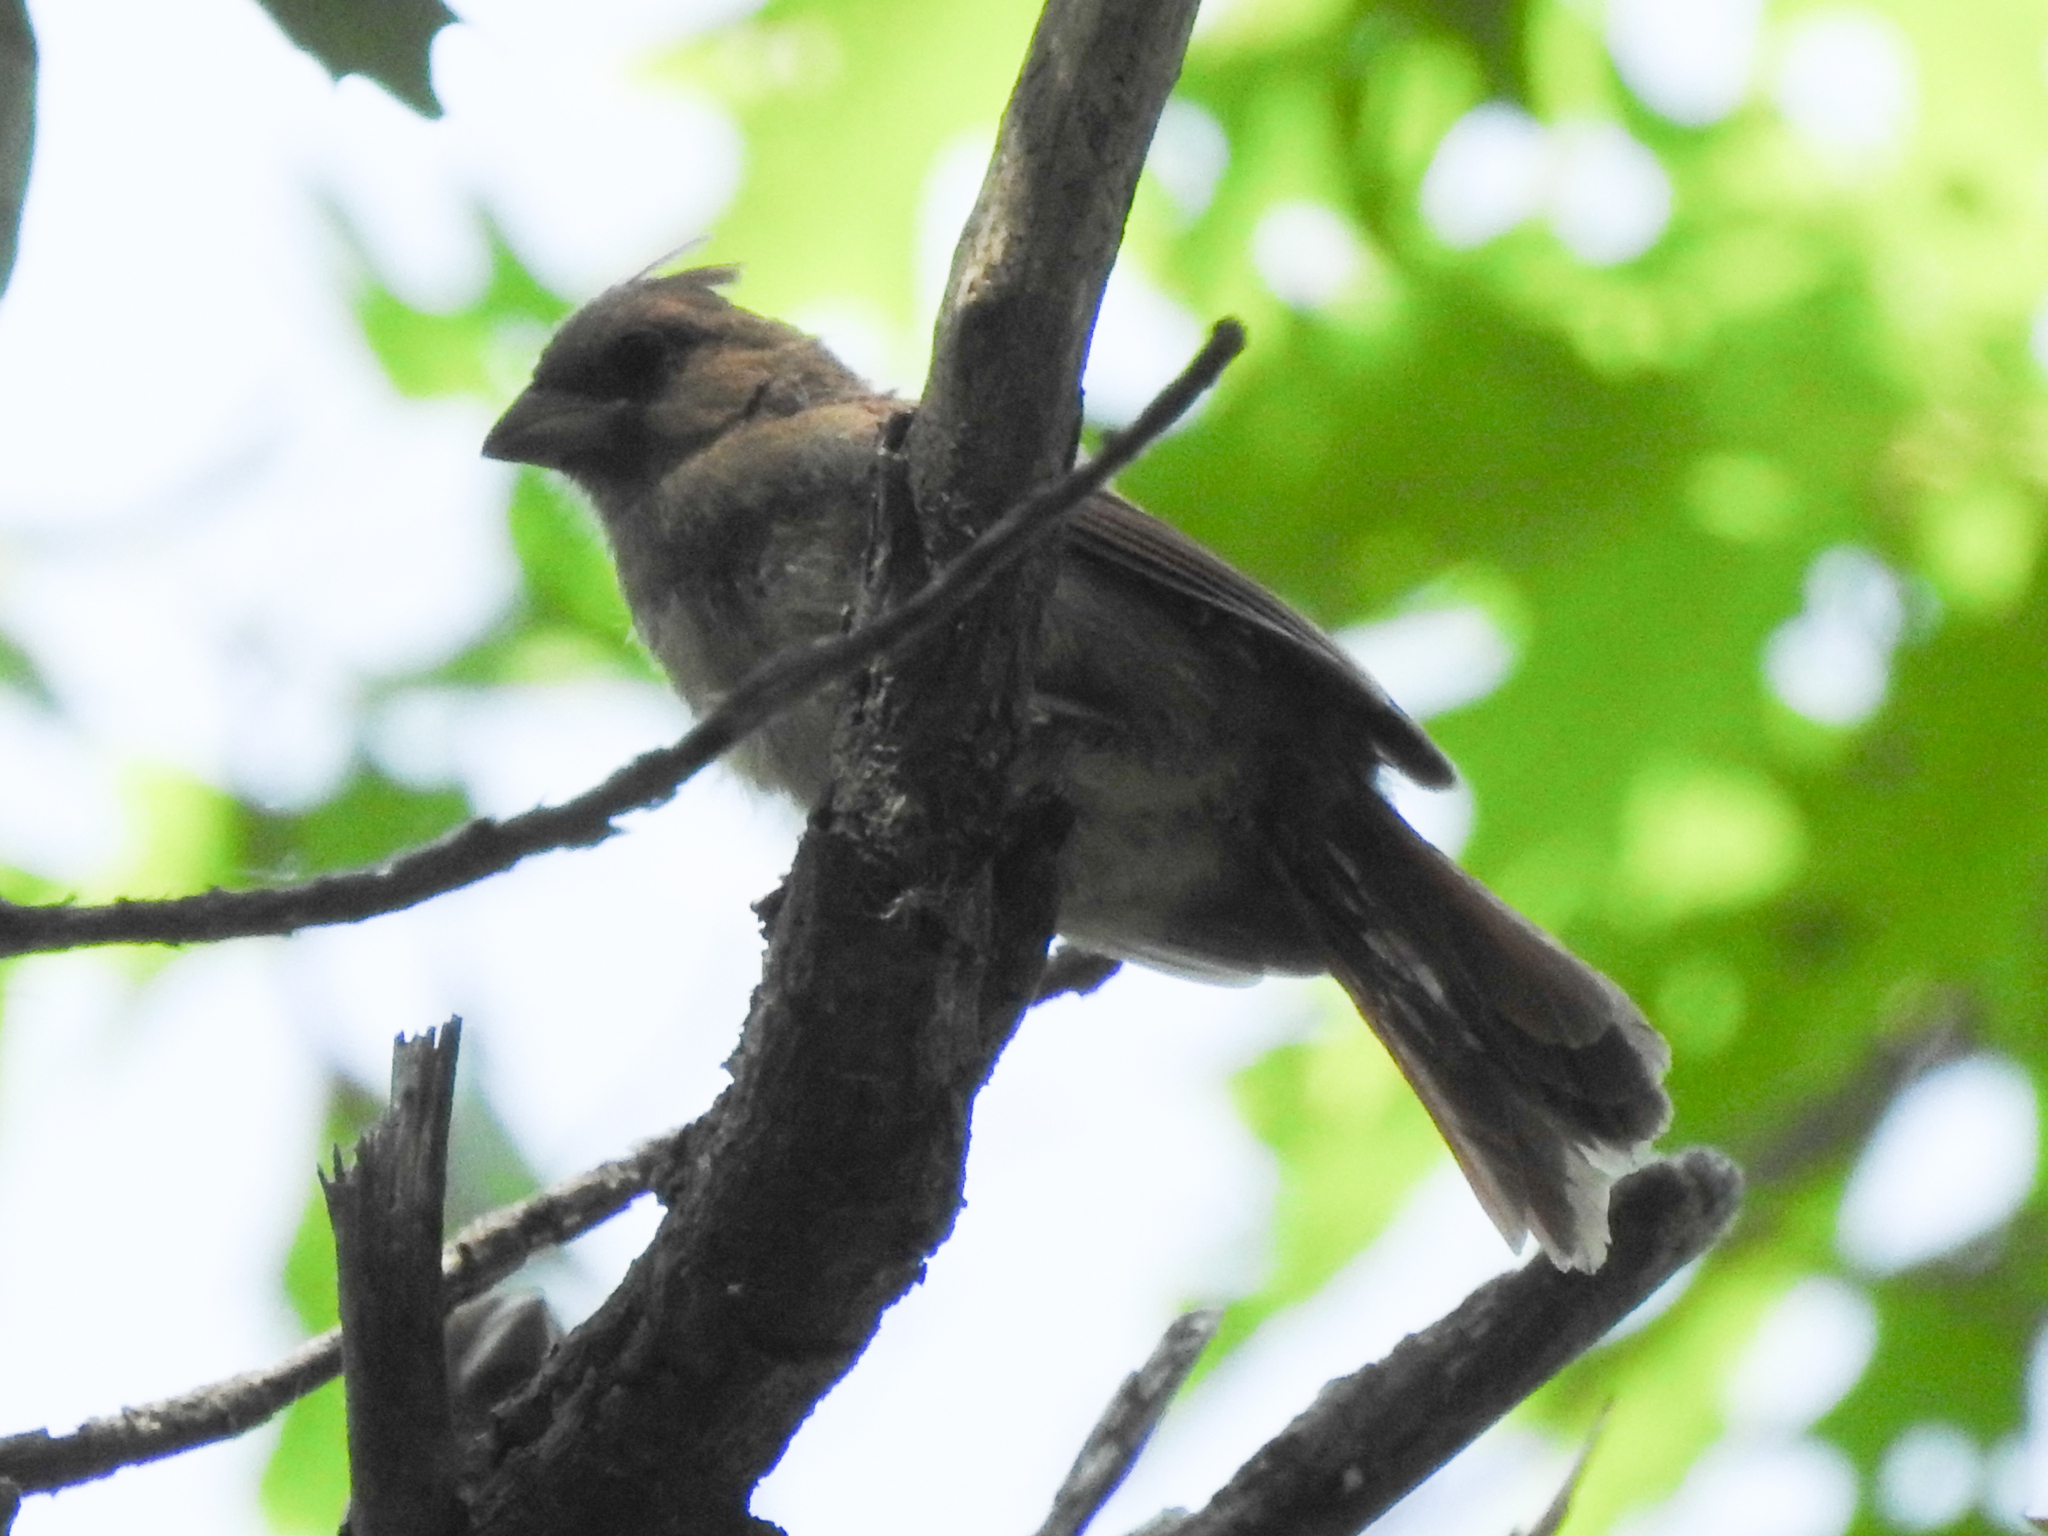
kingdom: Animalia
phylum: Chordata
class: Aves
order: Passeriformes
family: Cardinalidae
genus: Cardinalis
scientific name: Cardinalis cardinalis
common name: Northern cardinal
